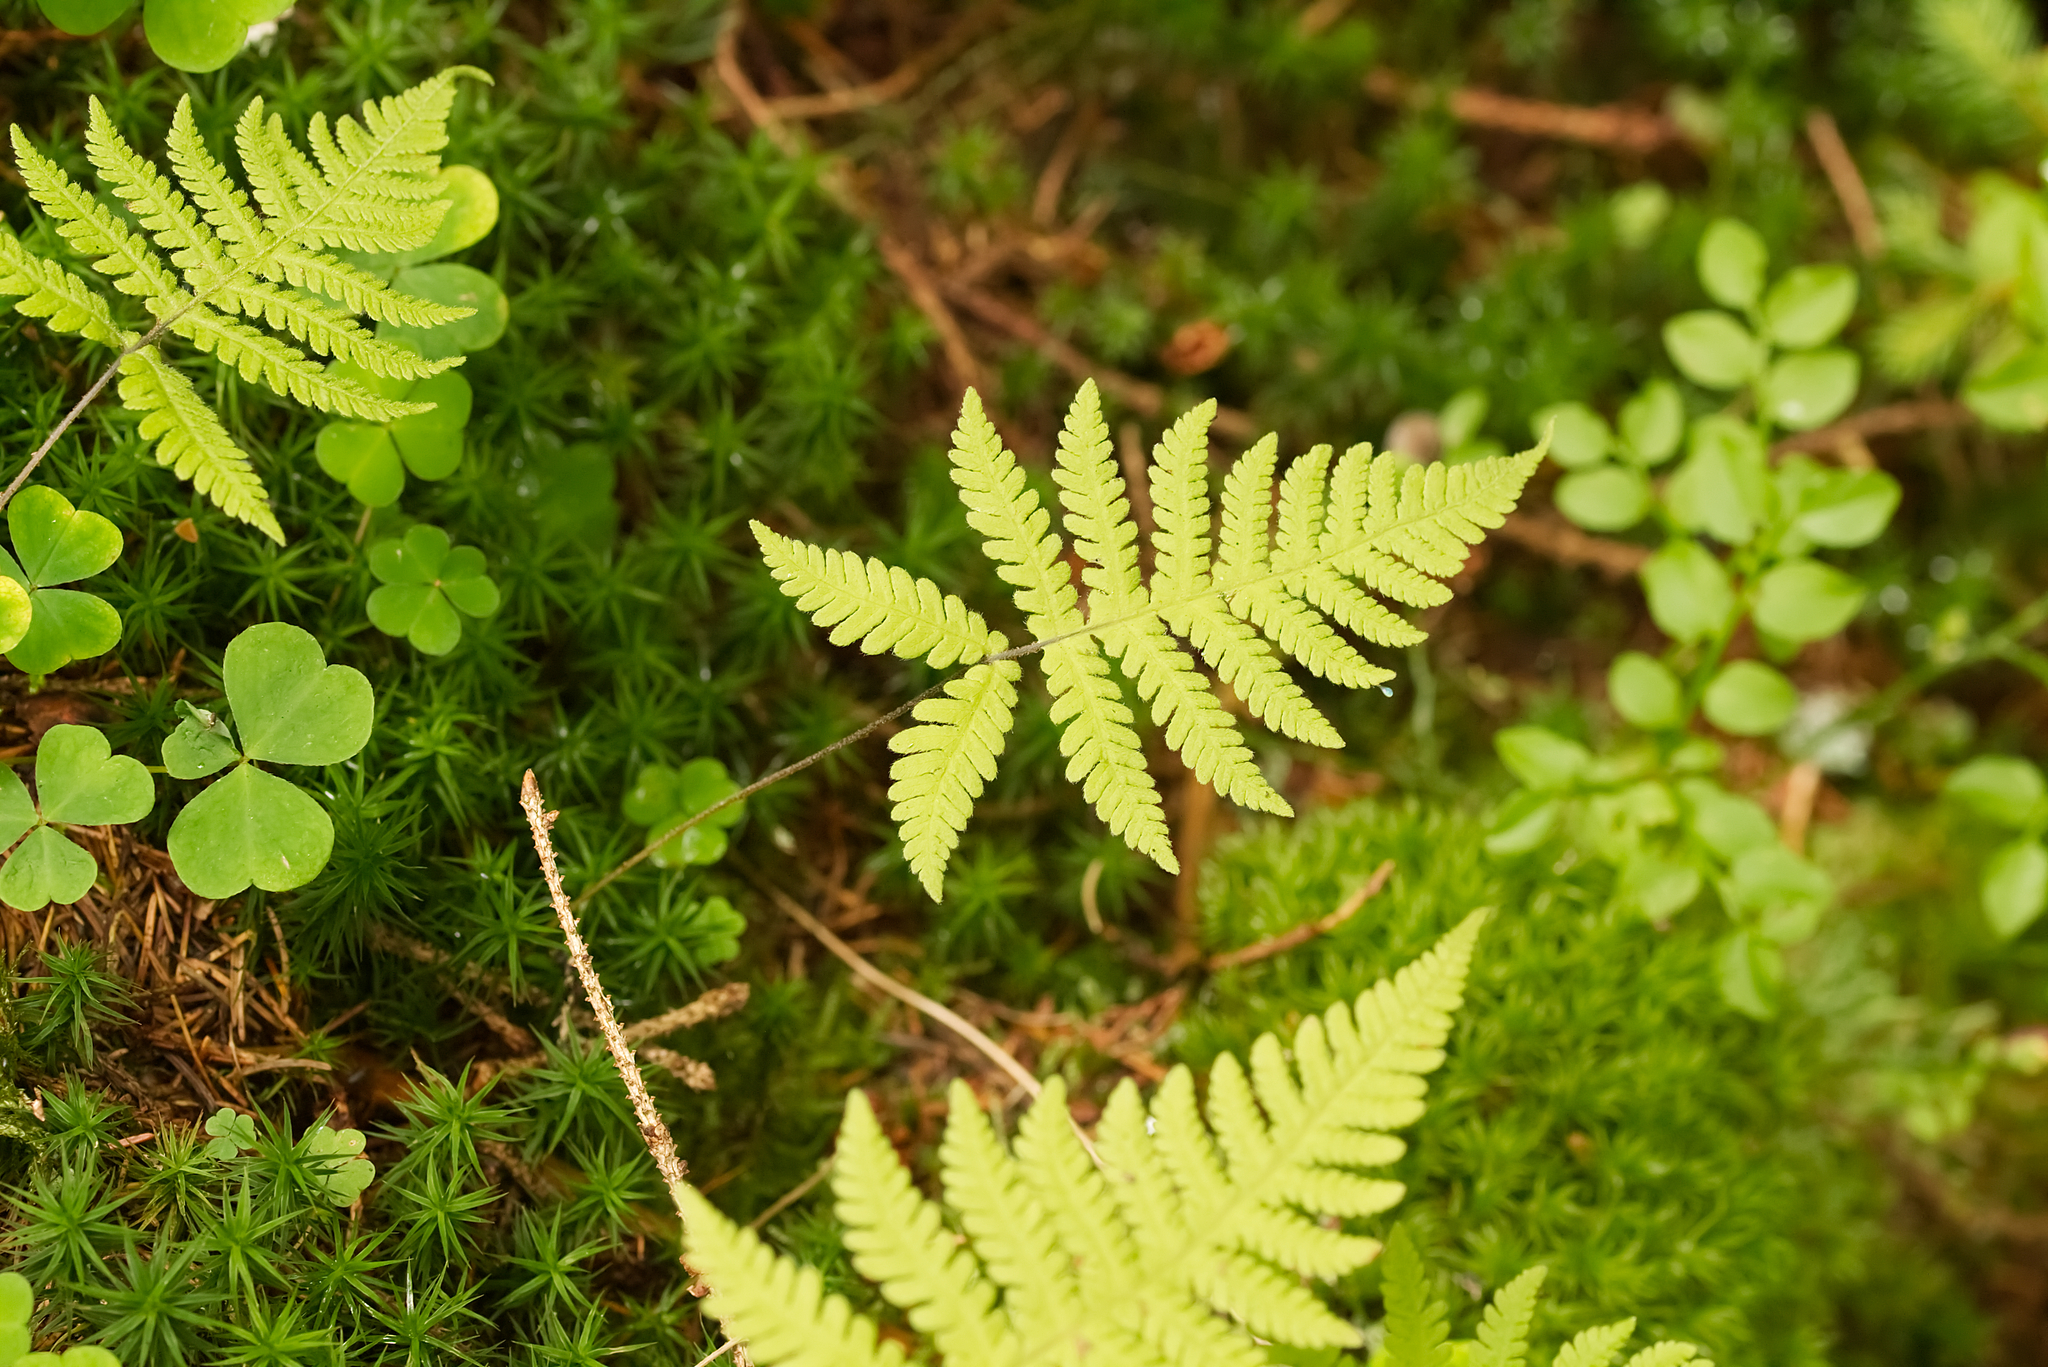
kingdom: Plantae
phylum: Tracheophyta
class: Polypodiopsida
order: Polypodiales
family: Thelypteridaceae
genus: Phegopteris
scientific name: Phegopteris connectilis
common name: Beech fern
